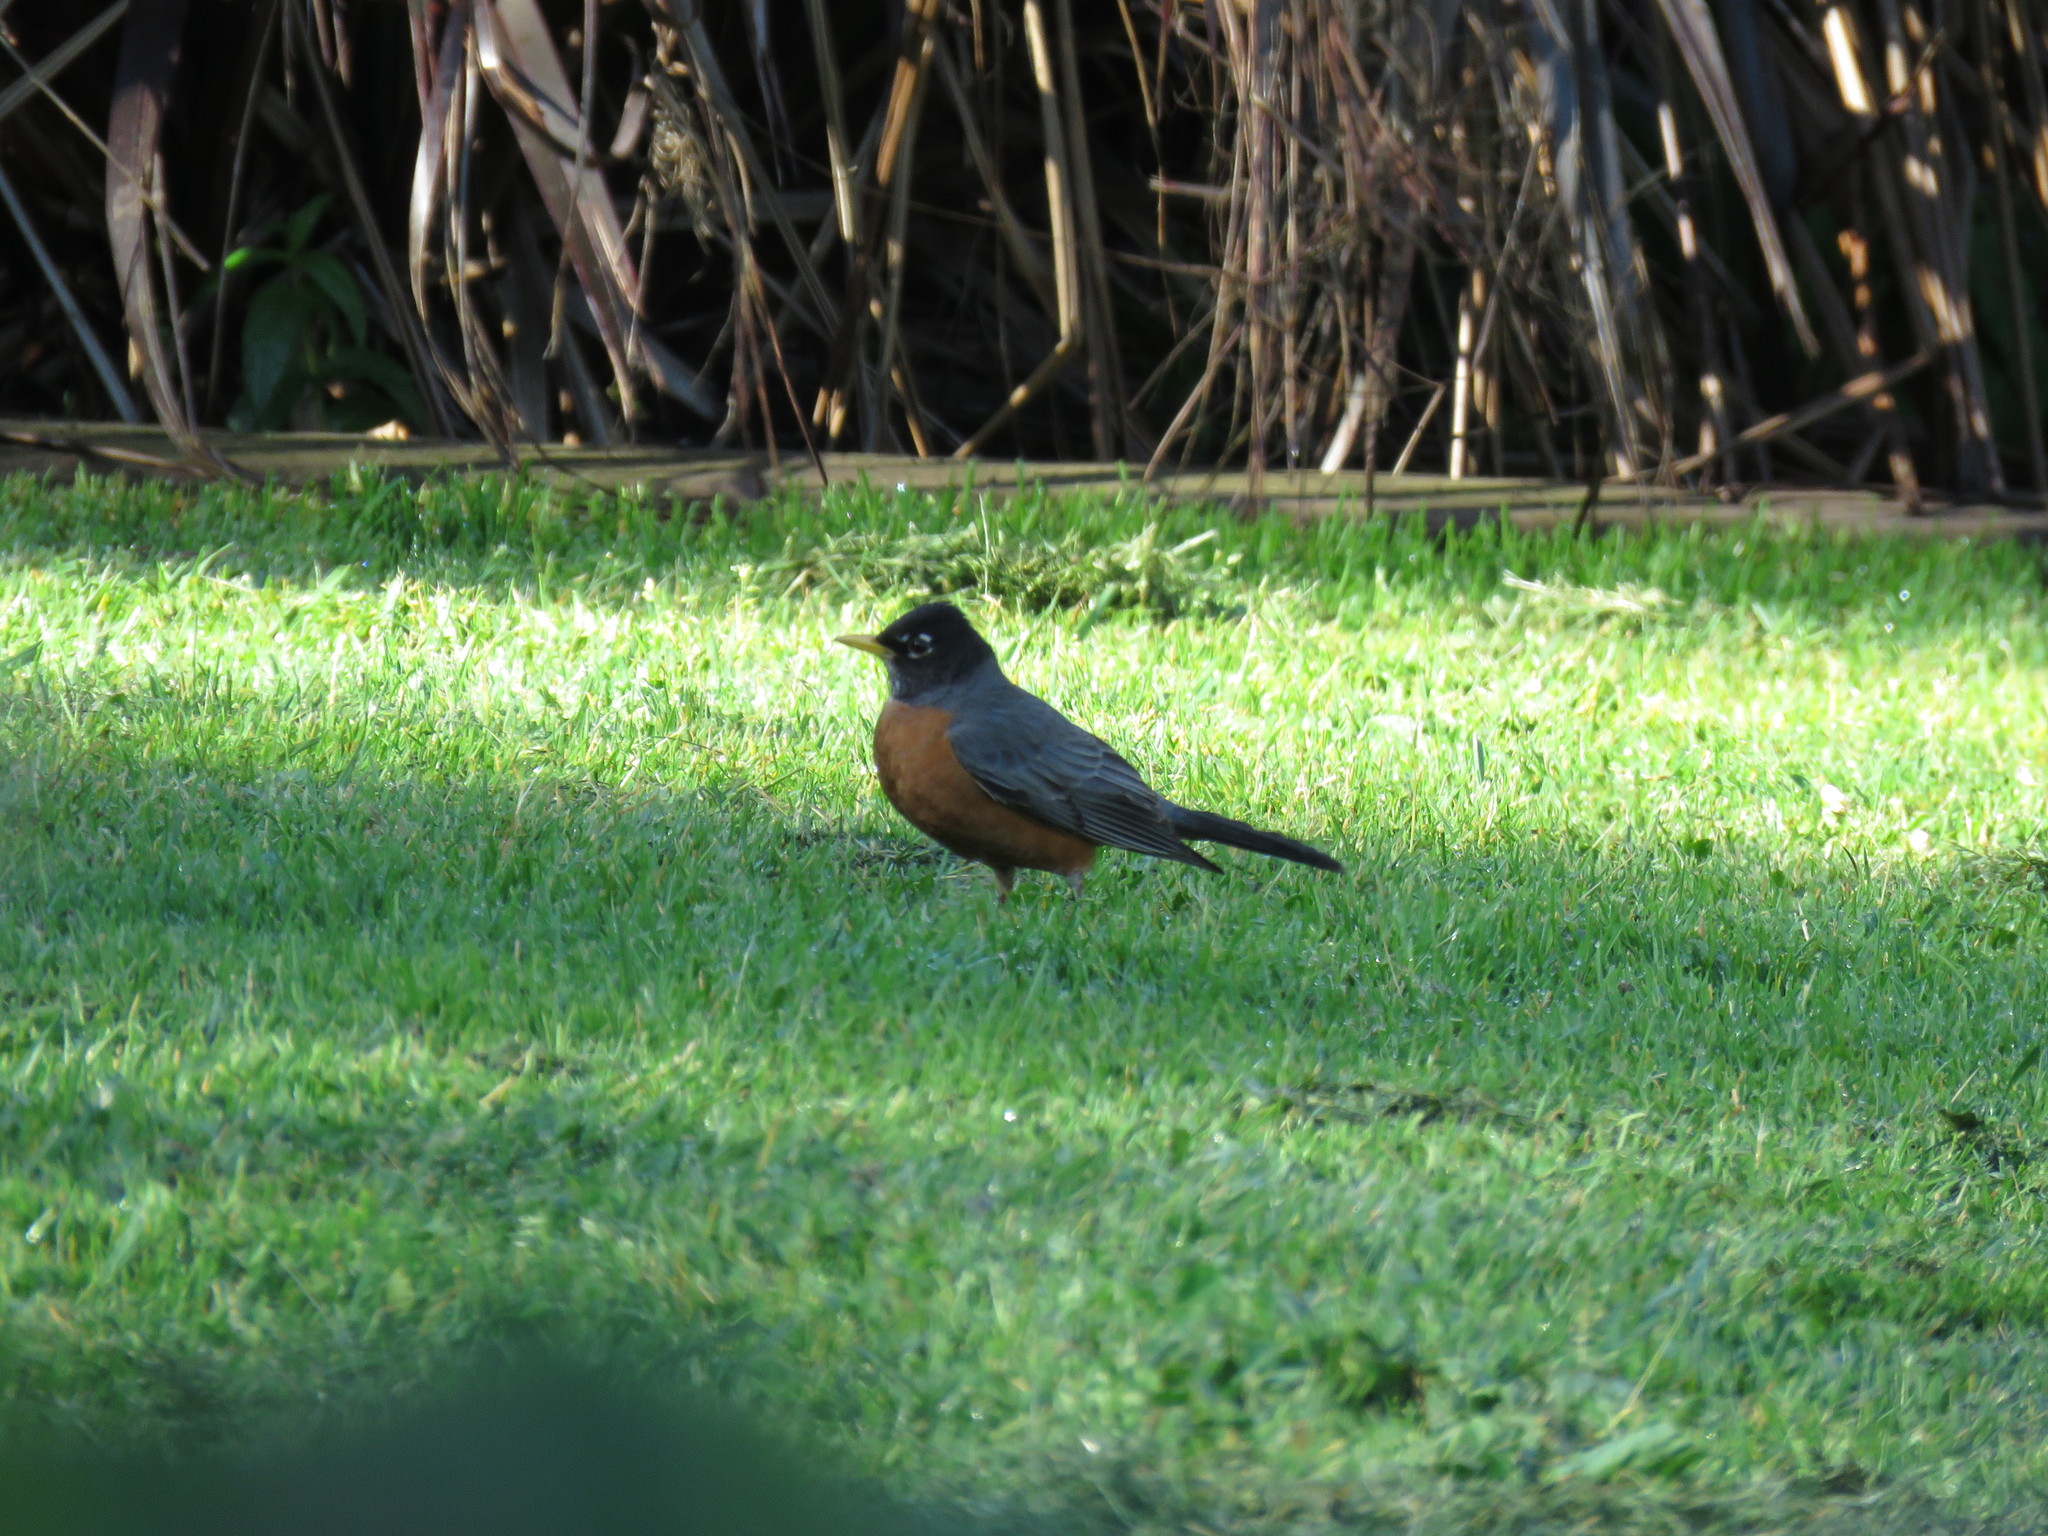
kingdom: Animalia
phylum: Chordata
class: Aves
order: Passeriformes
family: Turdidae
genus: Turdus
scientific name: Turdus migratorius
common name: American robin
